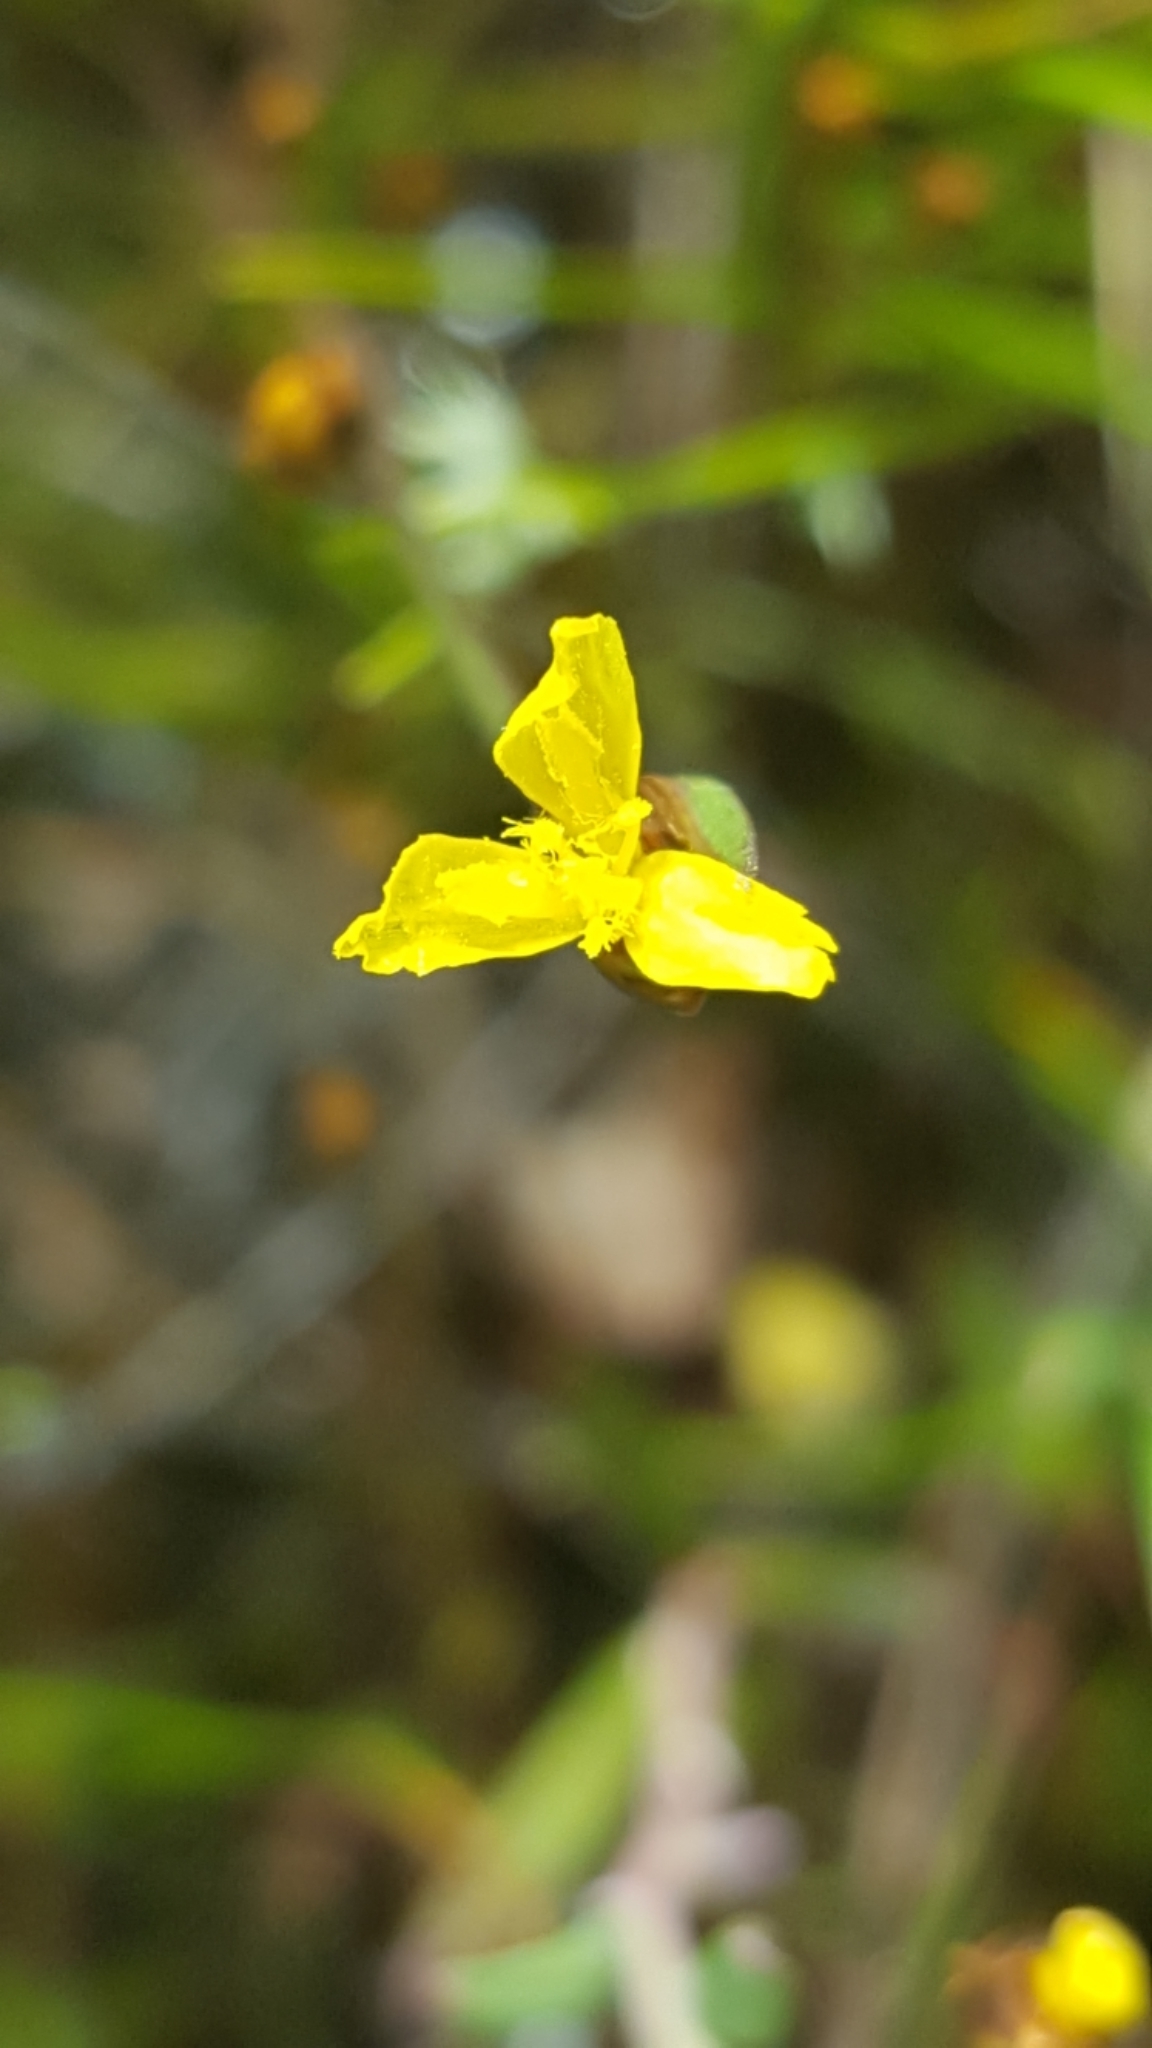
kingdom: Plantae
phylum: Tracheophyta
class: Liliopsida
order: Poales
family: Xyridaceae
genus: Xyris
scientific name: Xyris montana
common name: Northern yellow-eyed-grass
